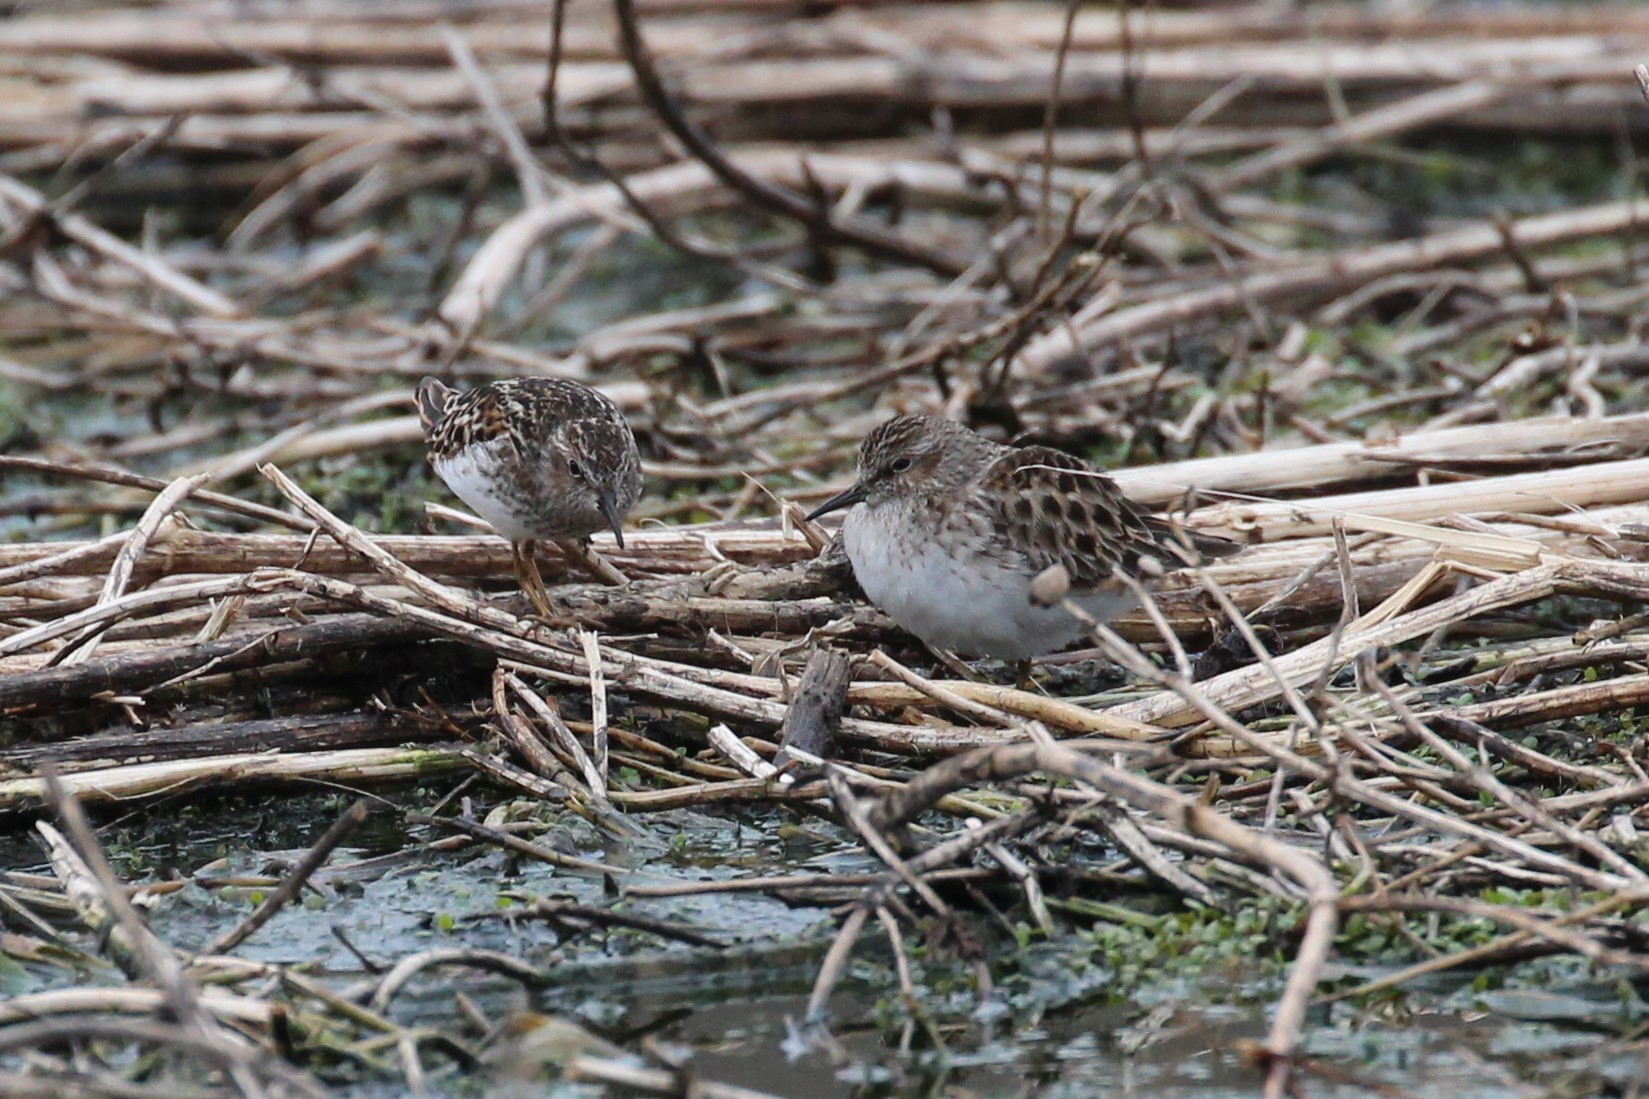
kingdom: Animalia
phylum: Chordata
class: Aves
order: Charadriiformes
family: Scolopacidae
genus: Calidris
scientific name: Calidris minutilla
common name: Least sandpiper
